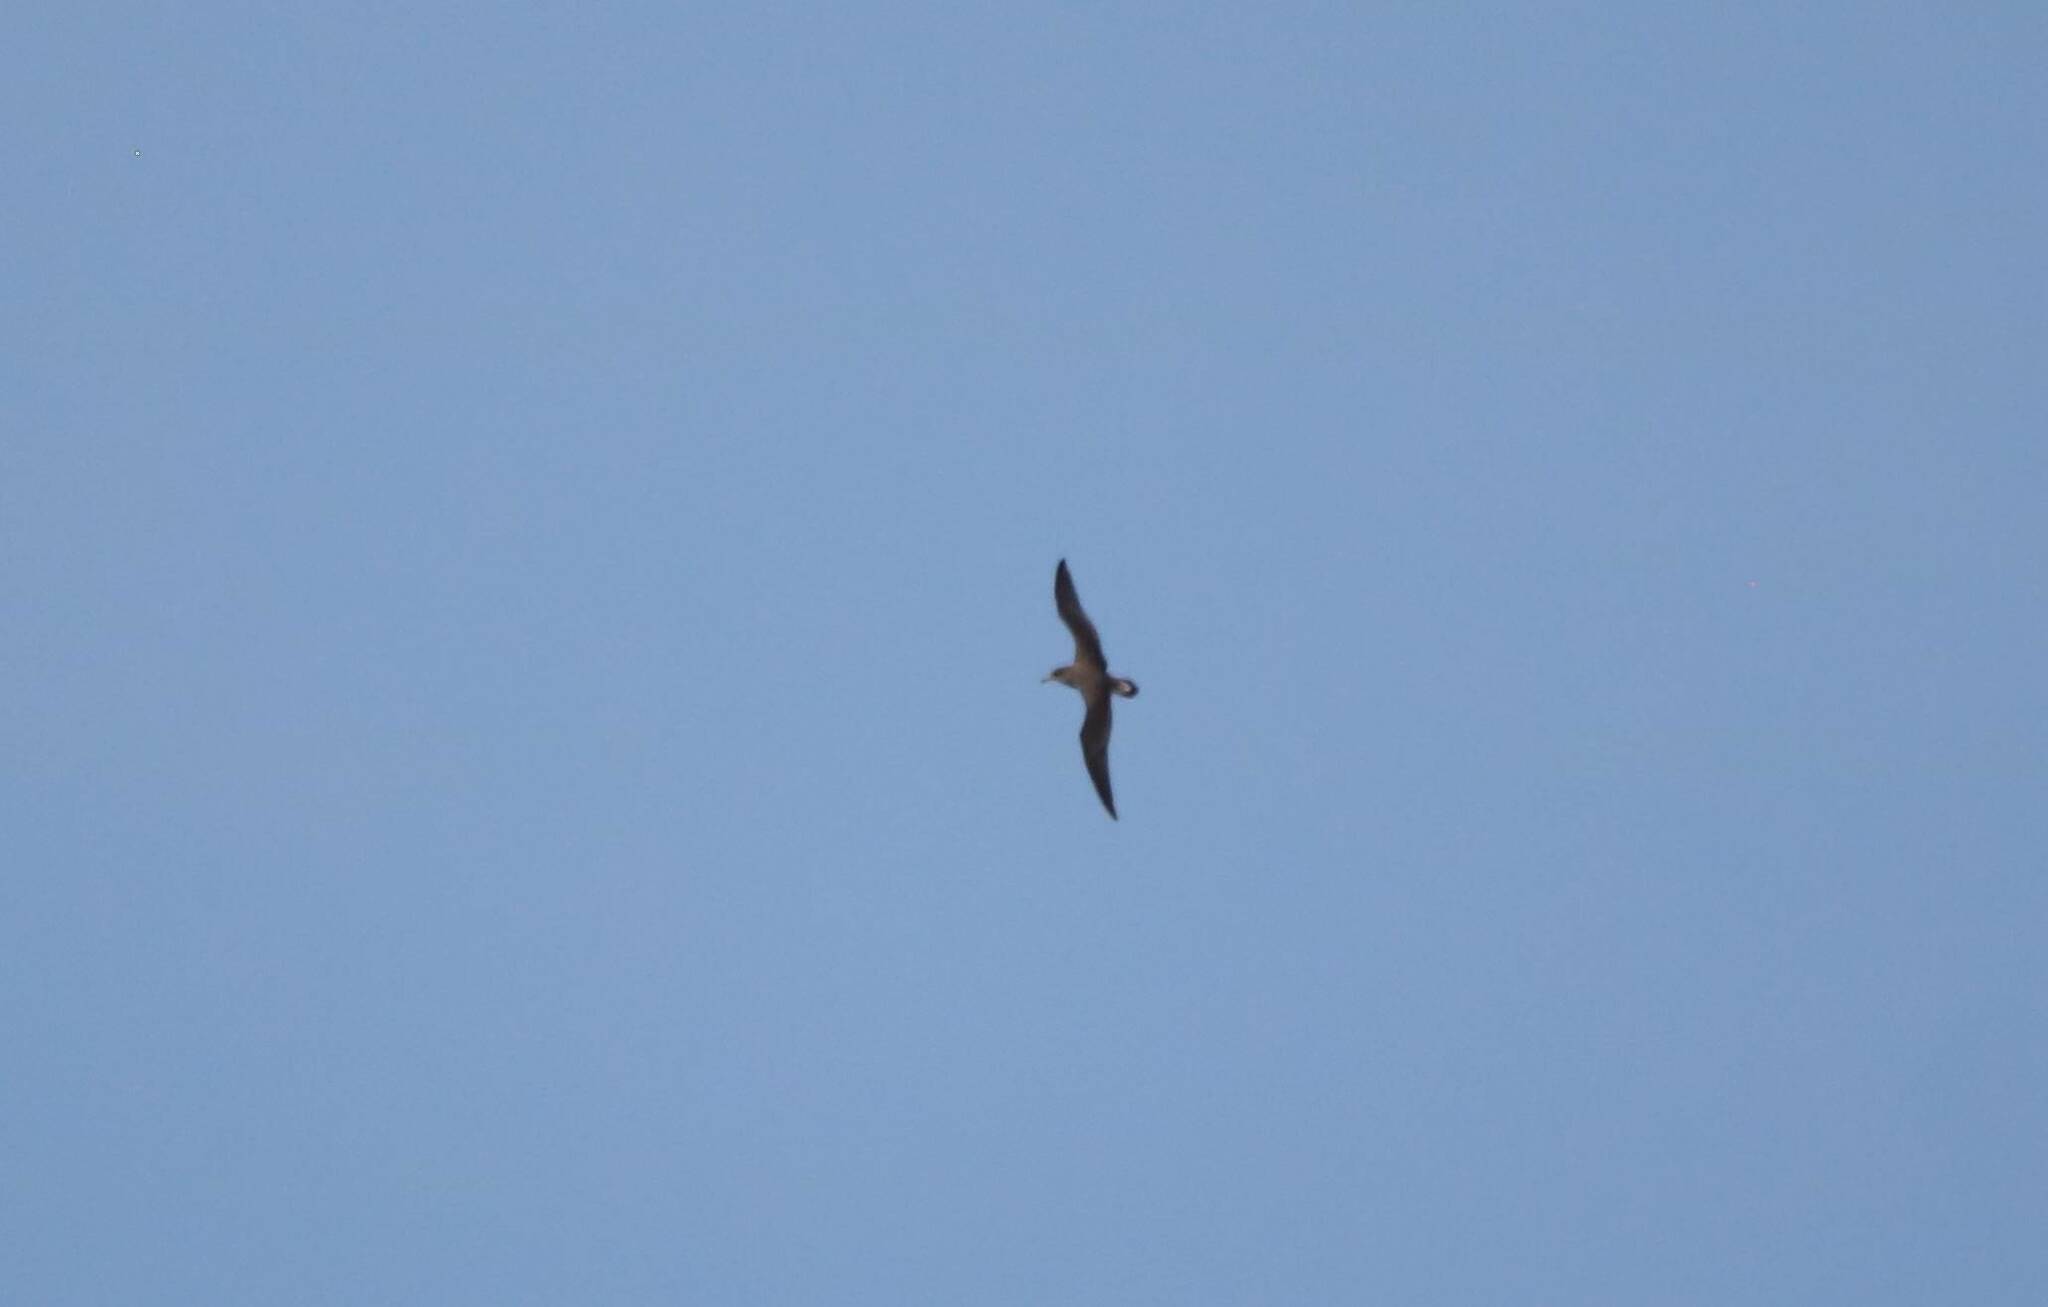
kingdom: Animalia
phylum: Chordata
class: Aves
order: Procellariiformes
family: Procellariidae
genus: Calonectris
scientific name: Calonectris diomedea
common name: Cory's shearwater
